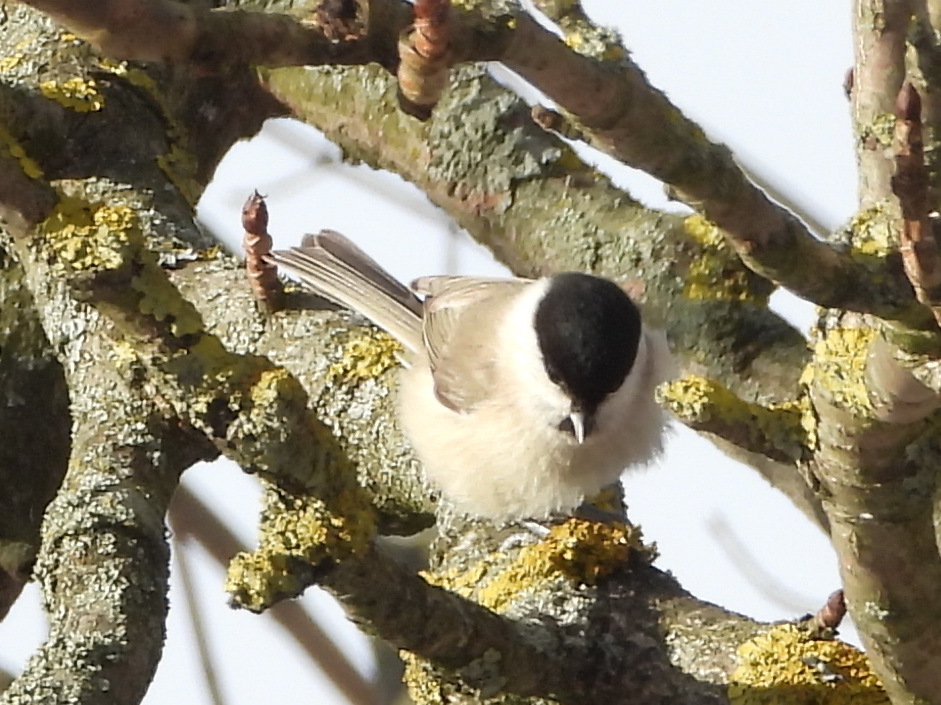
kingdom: Animalia
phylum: Chordata
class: Aves
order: Passeriformes
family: Paridae
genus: Poecile
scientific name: Poecile palustris
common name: Marsh tit
